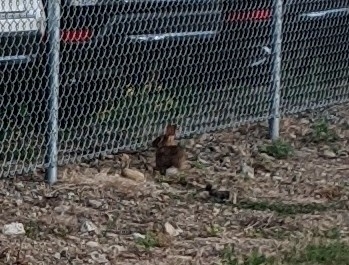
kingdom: Animalia
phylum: Chordata
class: Mammalia
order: Lagomorpha
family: Leporidae
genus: Sylvilagus
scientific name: Sylvilagus floridanus
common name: Eastern cottontail
